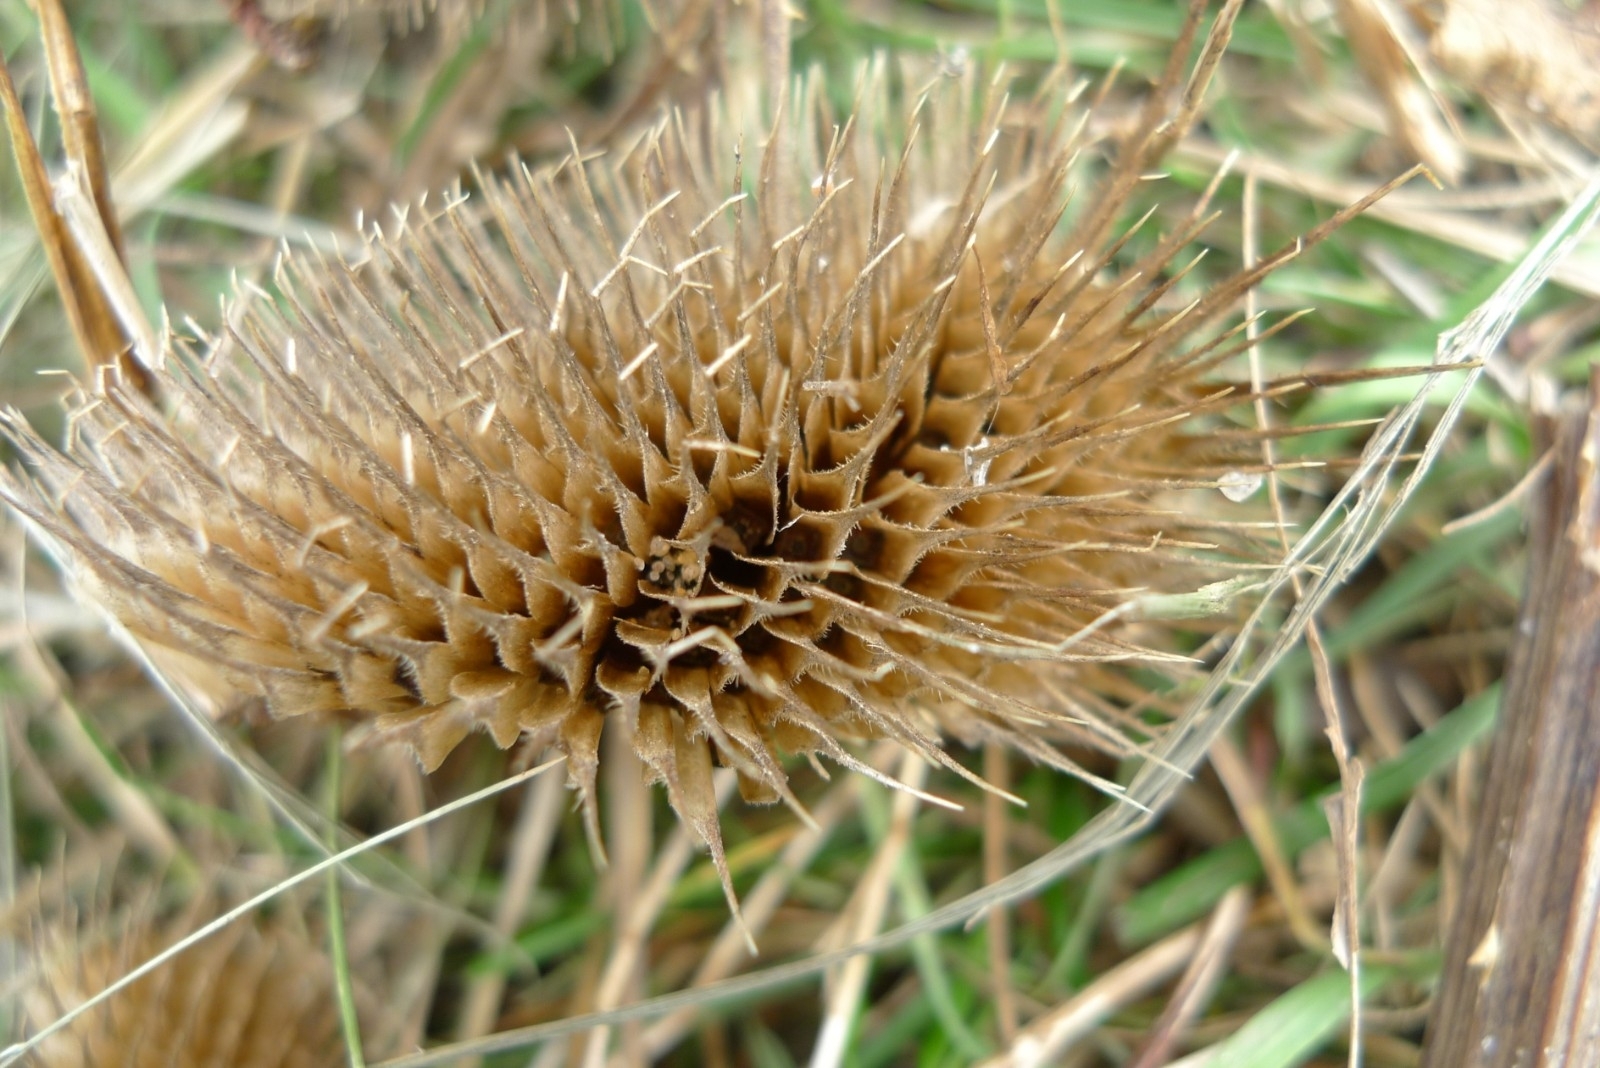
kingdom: Plantae
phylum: Tracheophyta
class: Magnoliopsida
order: Dipsacales
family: Caprifoliaceae
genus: Dipsacus
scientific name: Dipsacus fullonum
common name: Teasel
